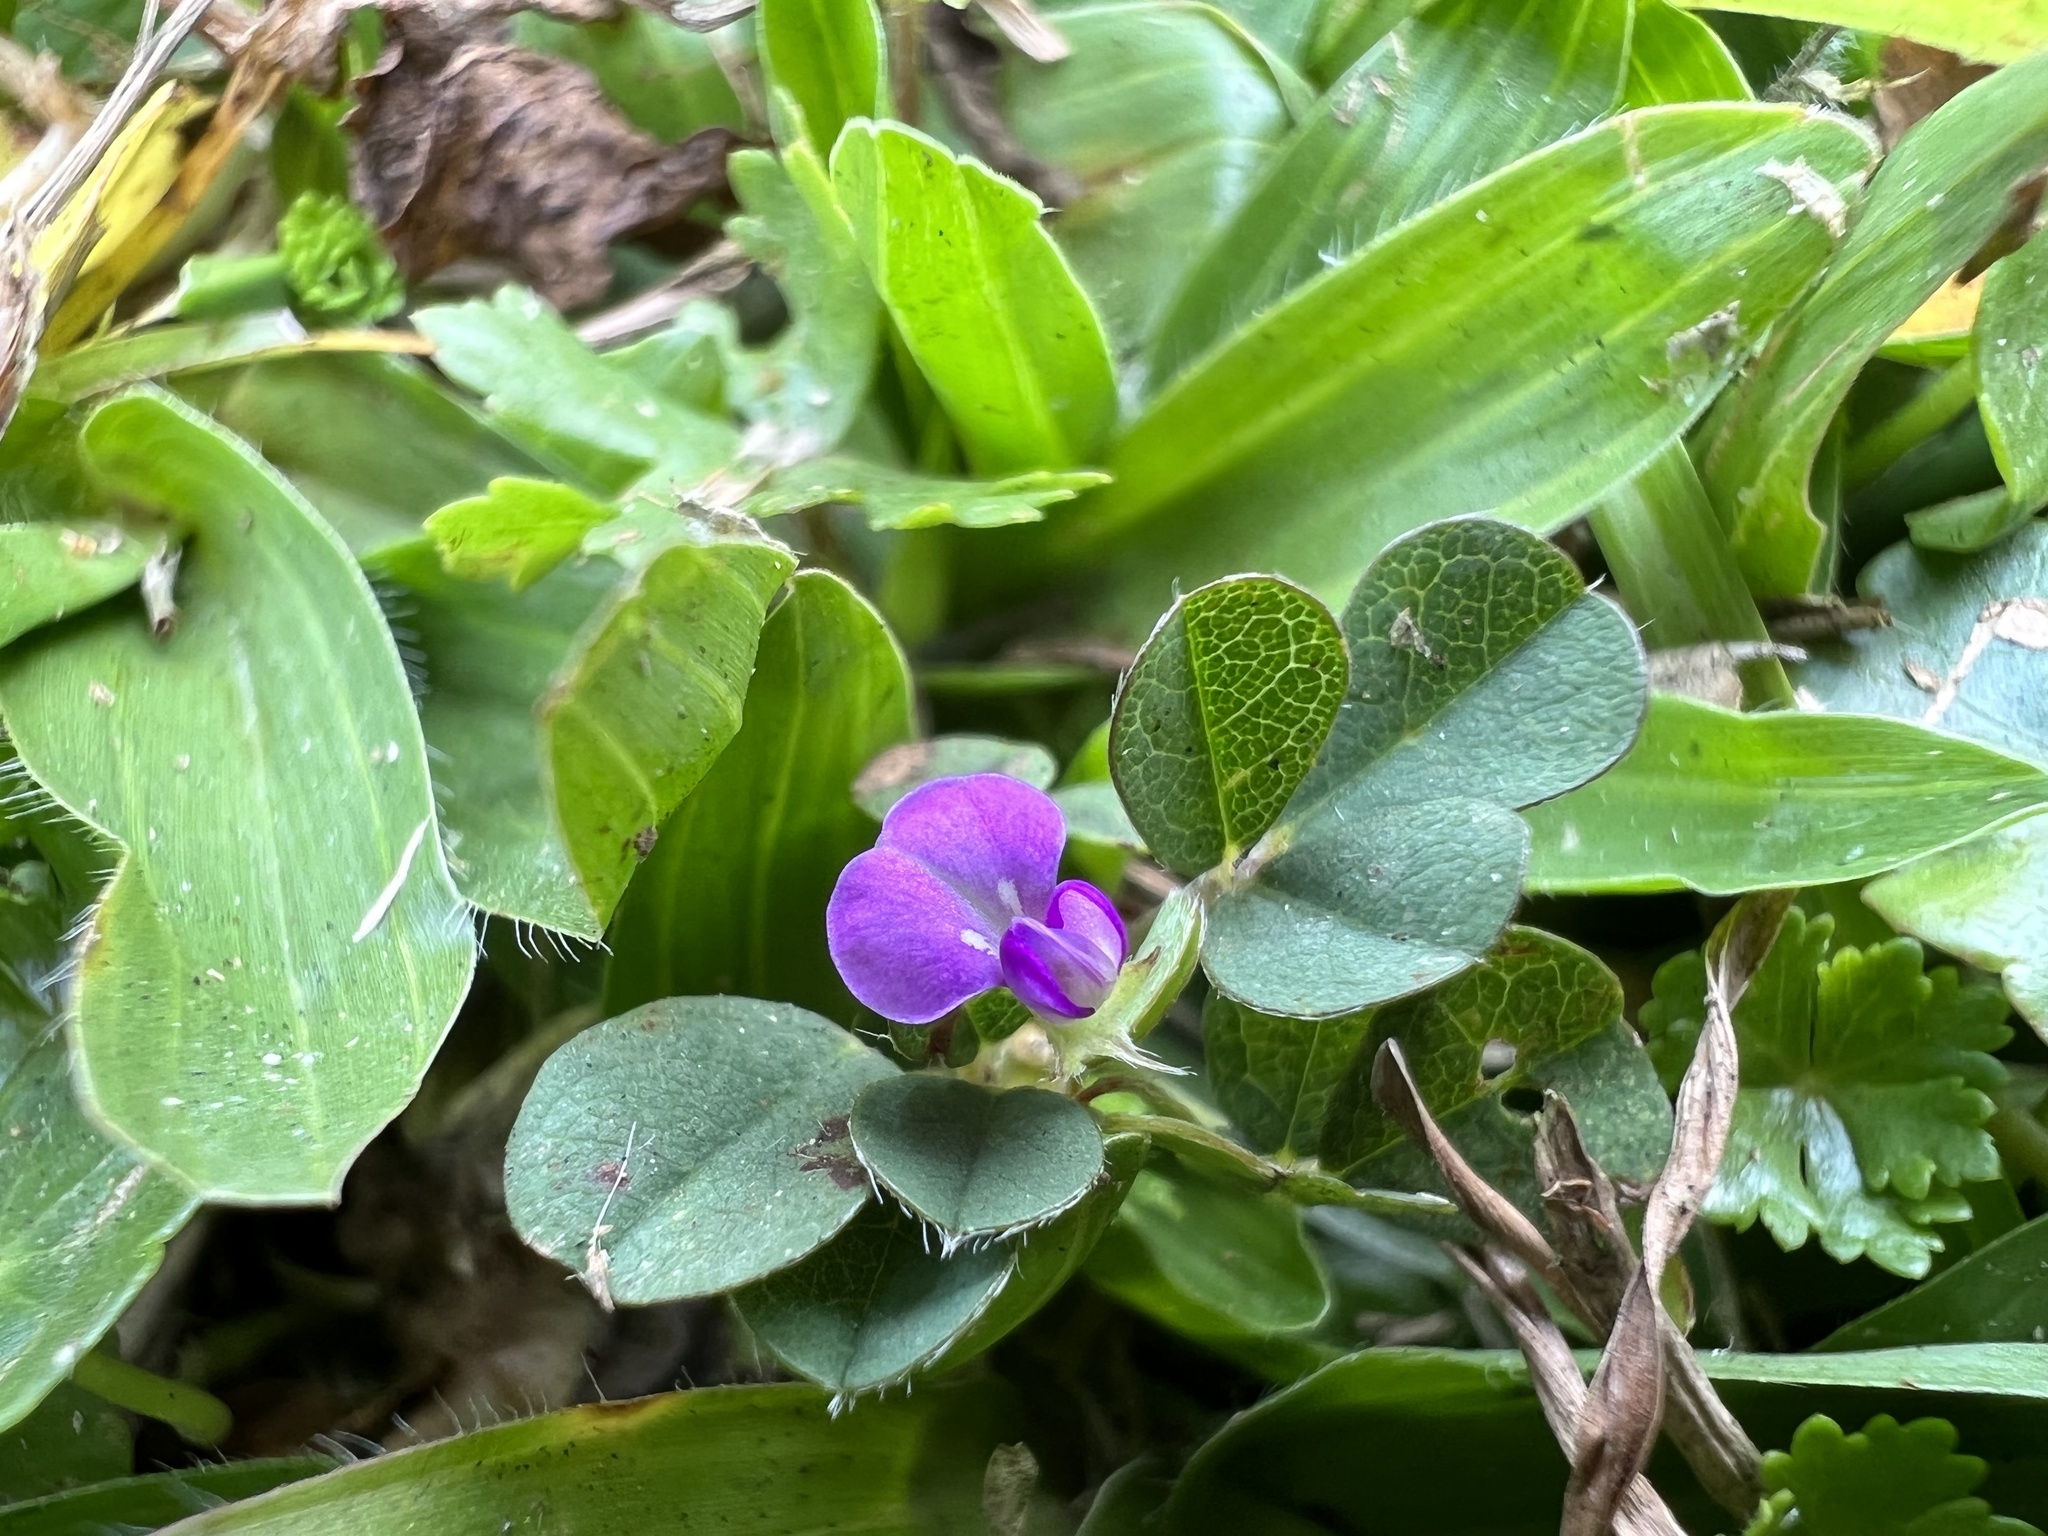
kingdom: Plantae
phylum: Tracheophyta
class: Magnoliopsida
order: Fabales
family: Fabaceae
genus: Grona
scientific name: Grona triflora
